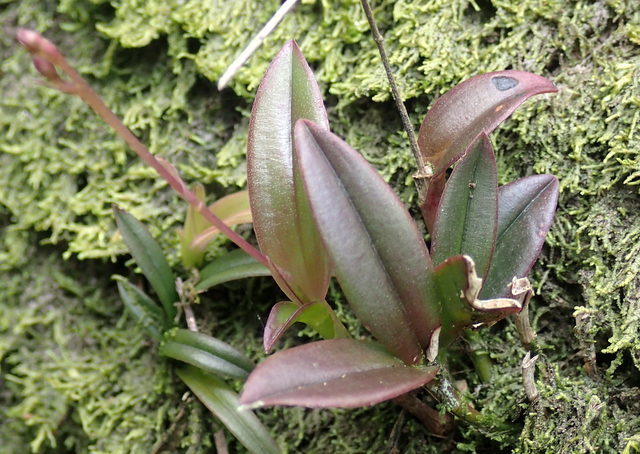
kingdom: Plantae
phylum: Tracheophyta
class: Liliopsida
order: Asparagales
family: Orchidaceae
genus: Epidendrum
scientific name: Epidendrum conopseum
